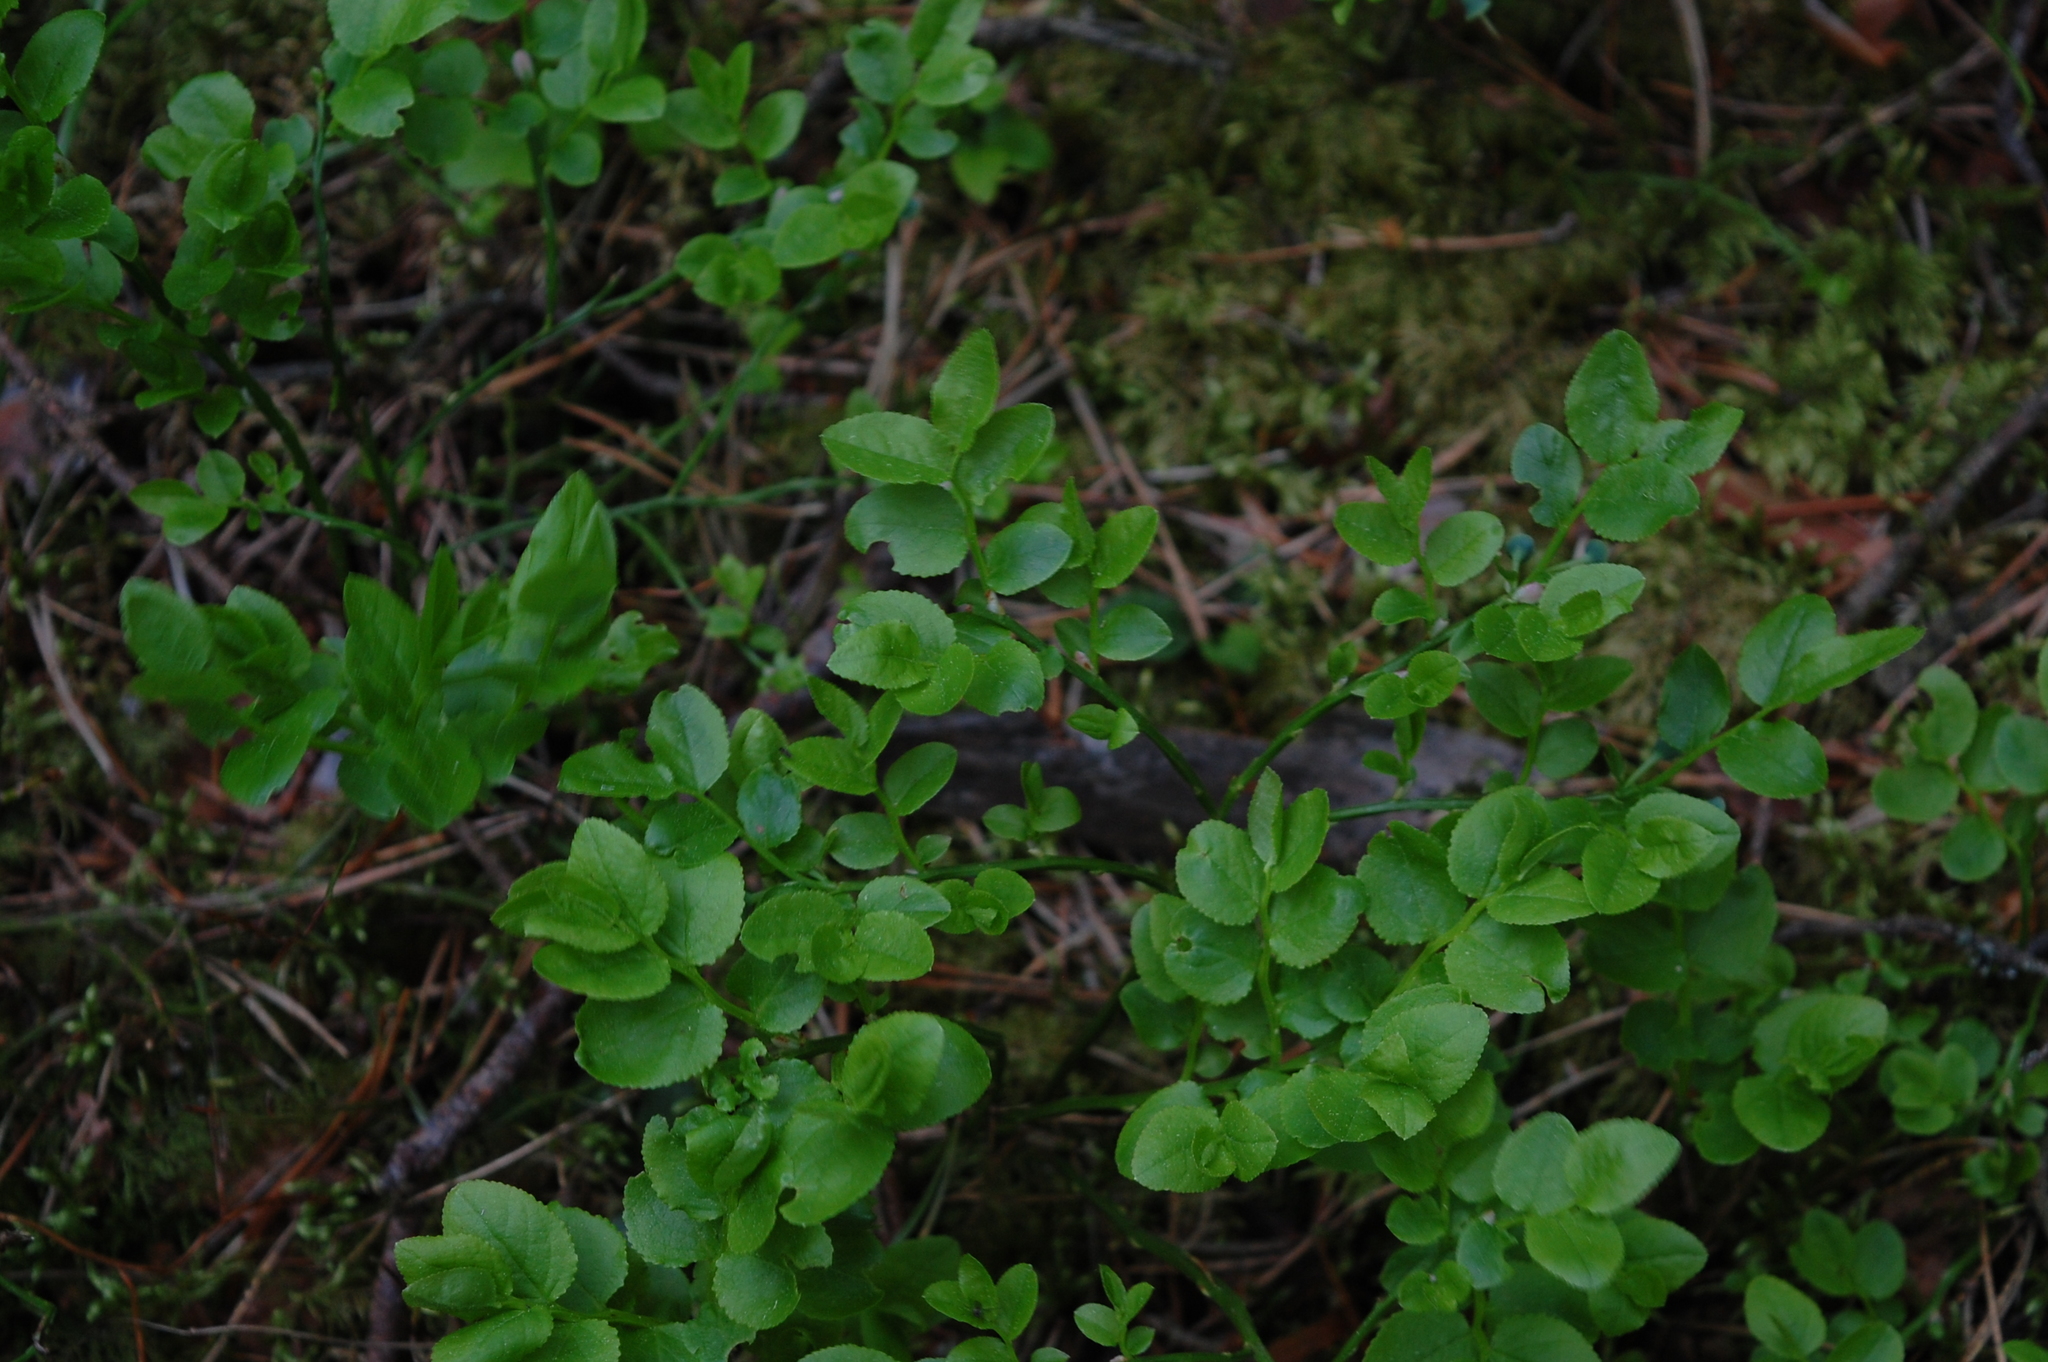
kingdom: Plantae
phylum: Tracheophyta
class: Magnoliopsida
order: Ericales
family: Ericaceae
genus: Vaccinium
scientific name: Vaccinium myrtillus
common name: Bilberry
